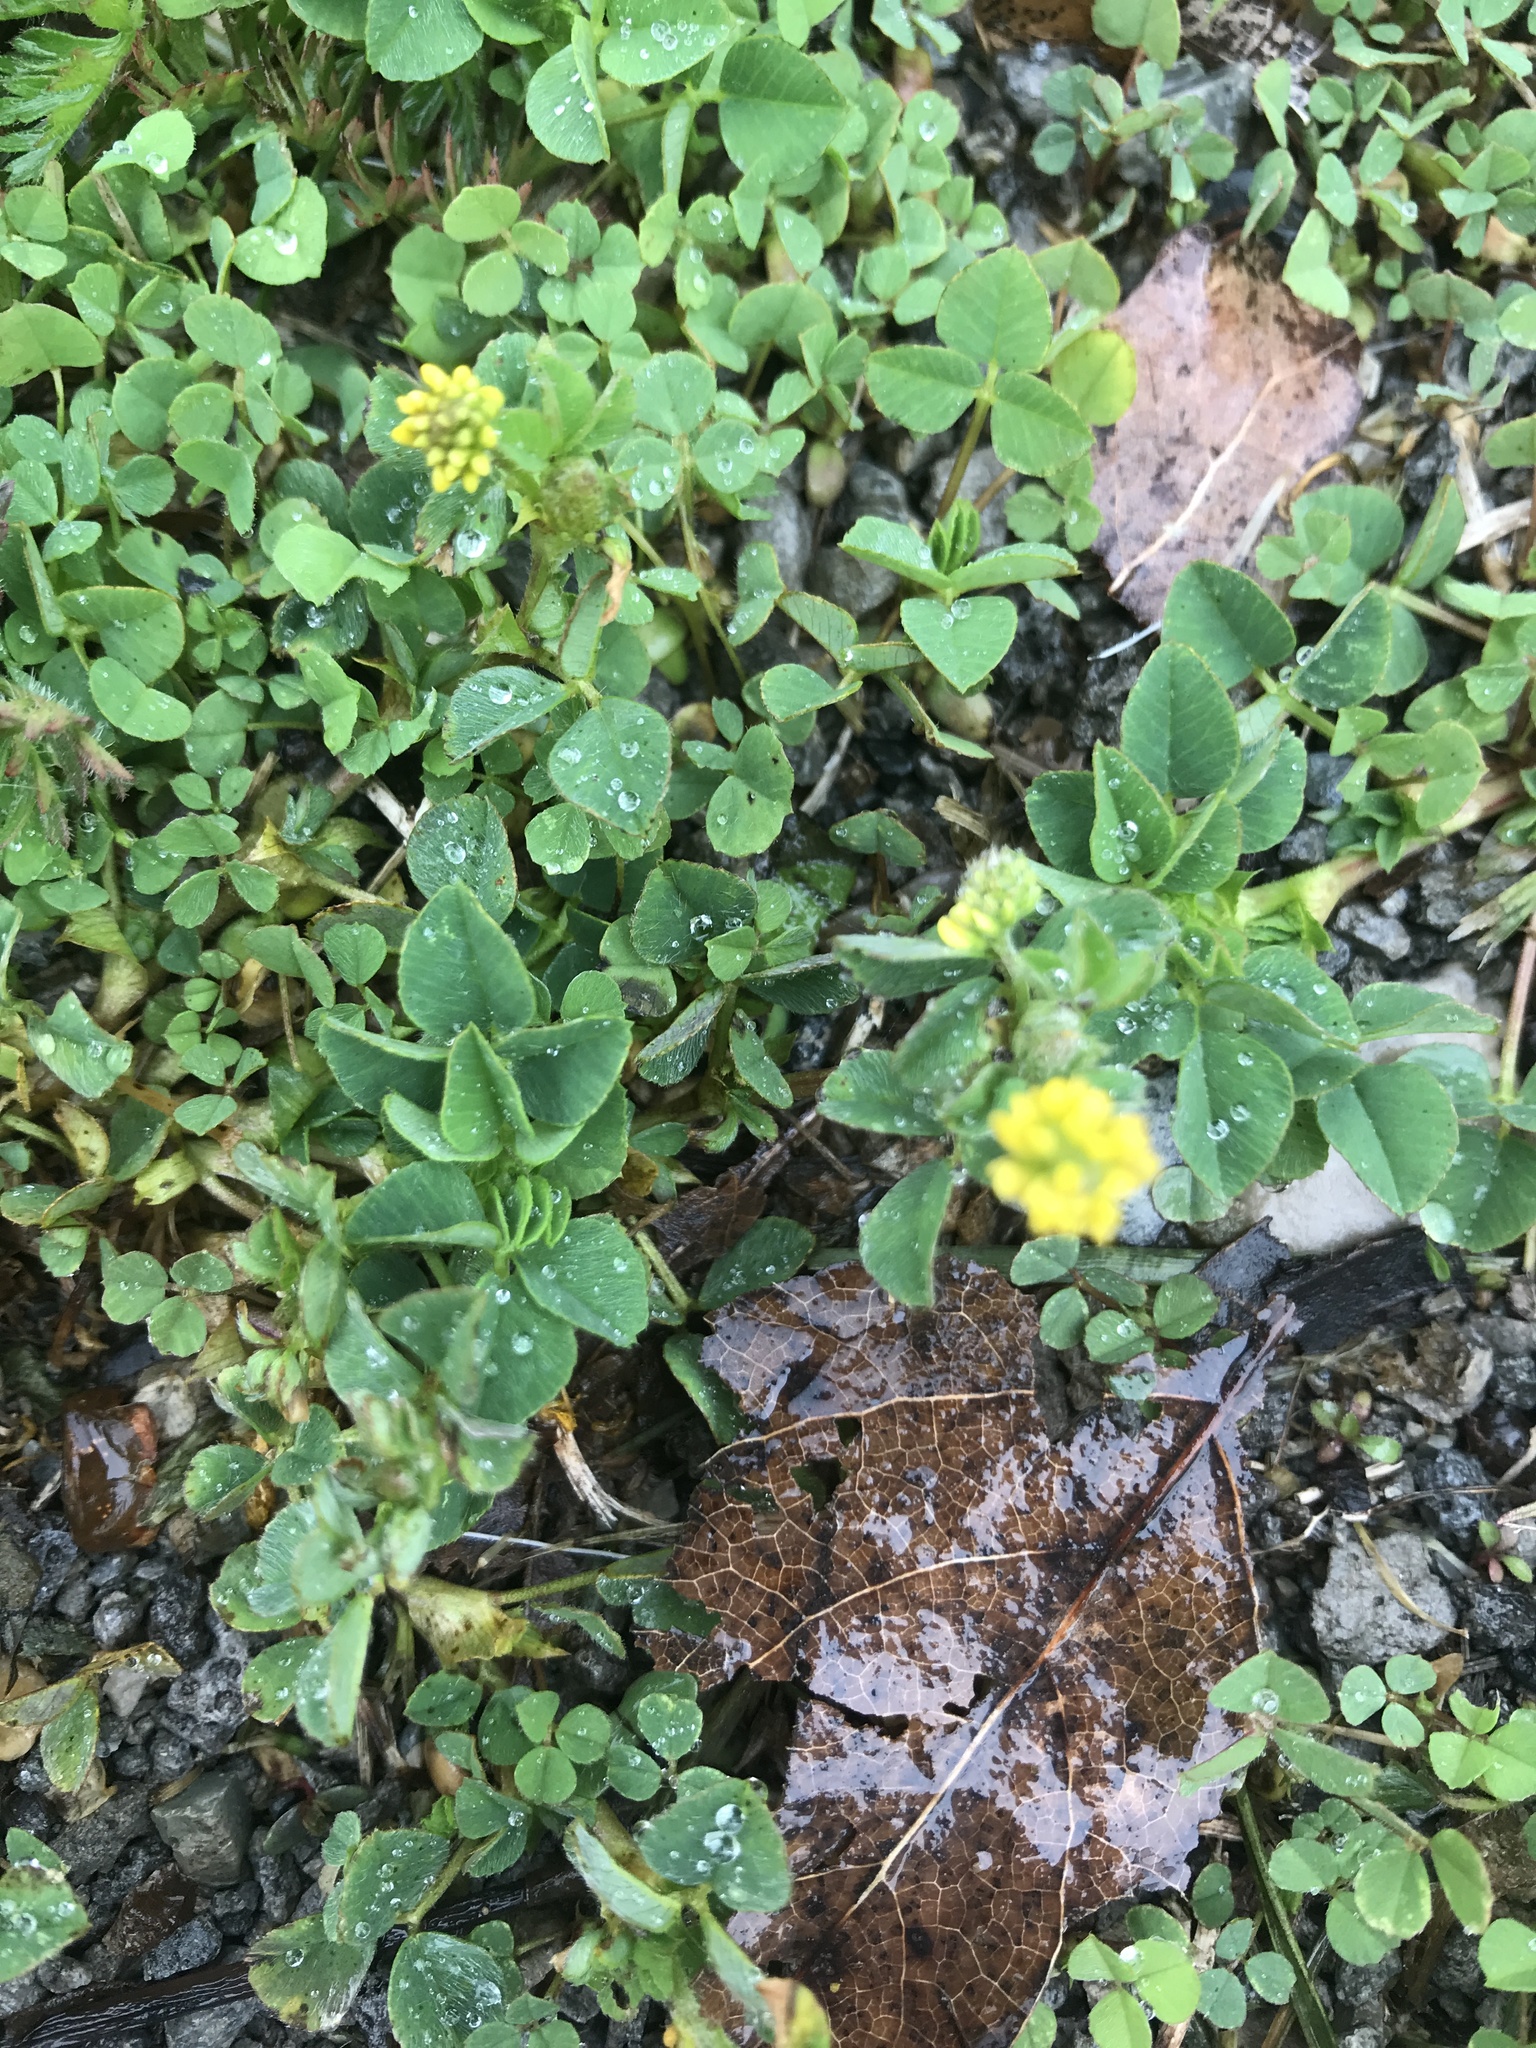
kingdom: Plantae
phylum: Tracheophyta
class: Magnoliopsida
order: Fabales
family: Fabaceae
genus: Medicago
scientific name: Medicago lupulina
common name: Black medick
